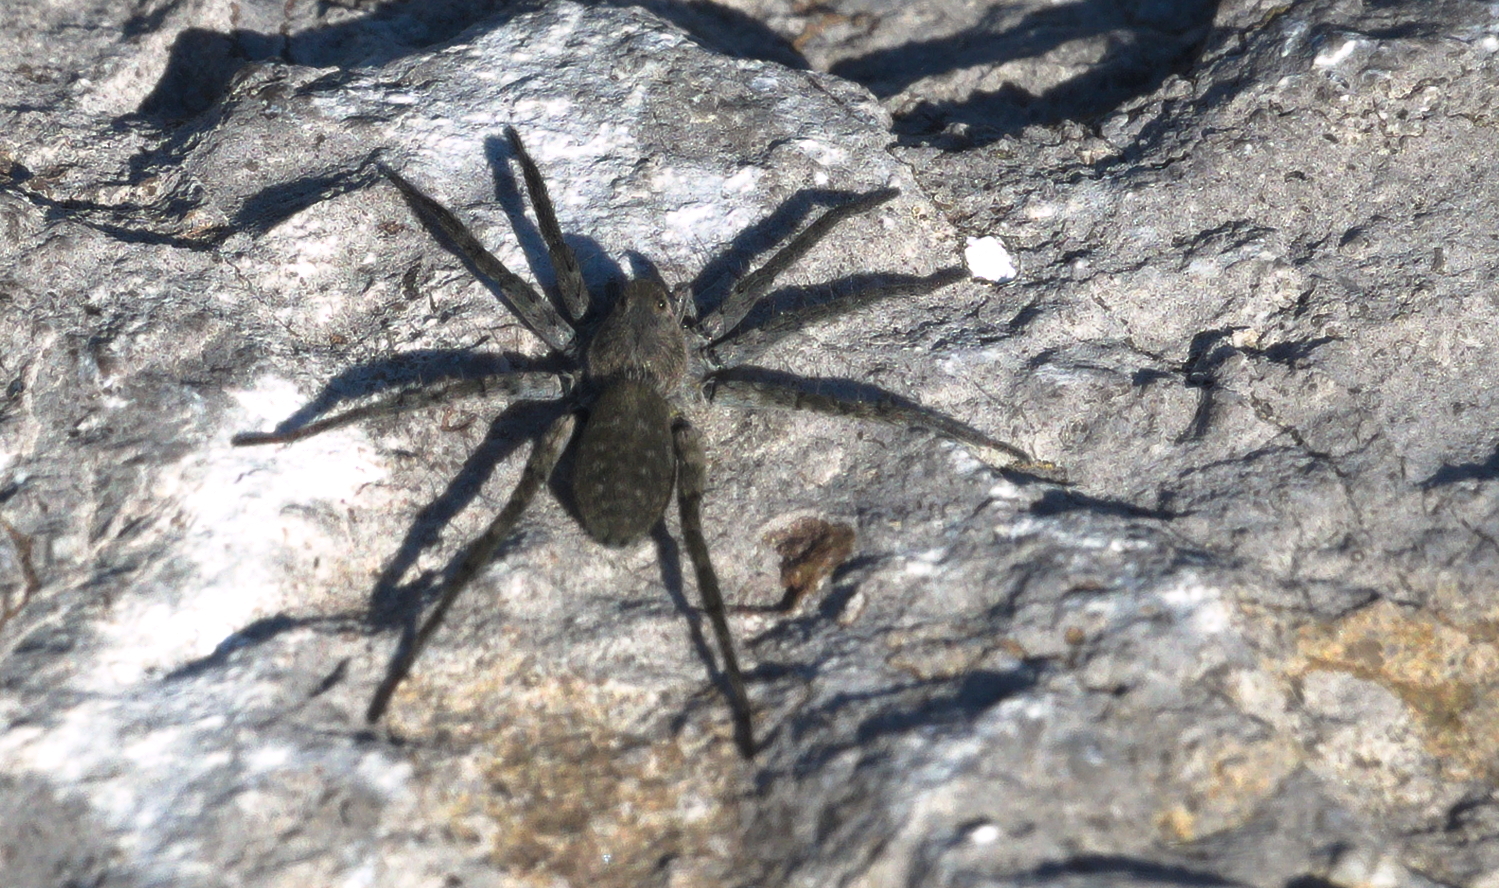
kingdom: Animalia
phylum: Arthropoda
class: Arachnida
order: Araneae
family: Lycosidae
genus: Pardosa
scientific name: Pardosa lapidicina
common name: Stone spider
